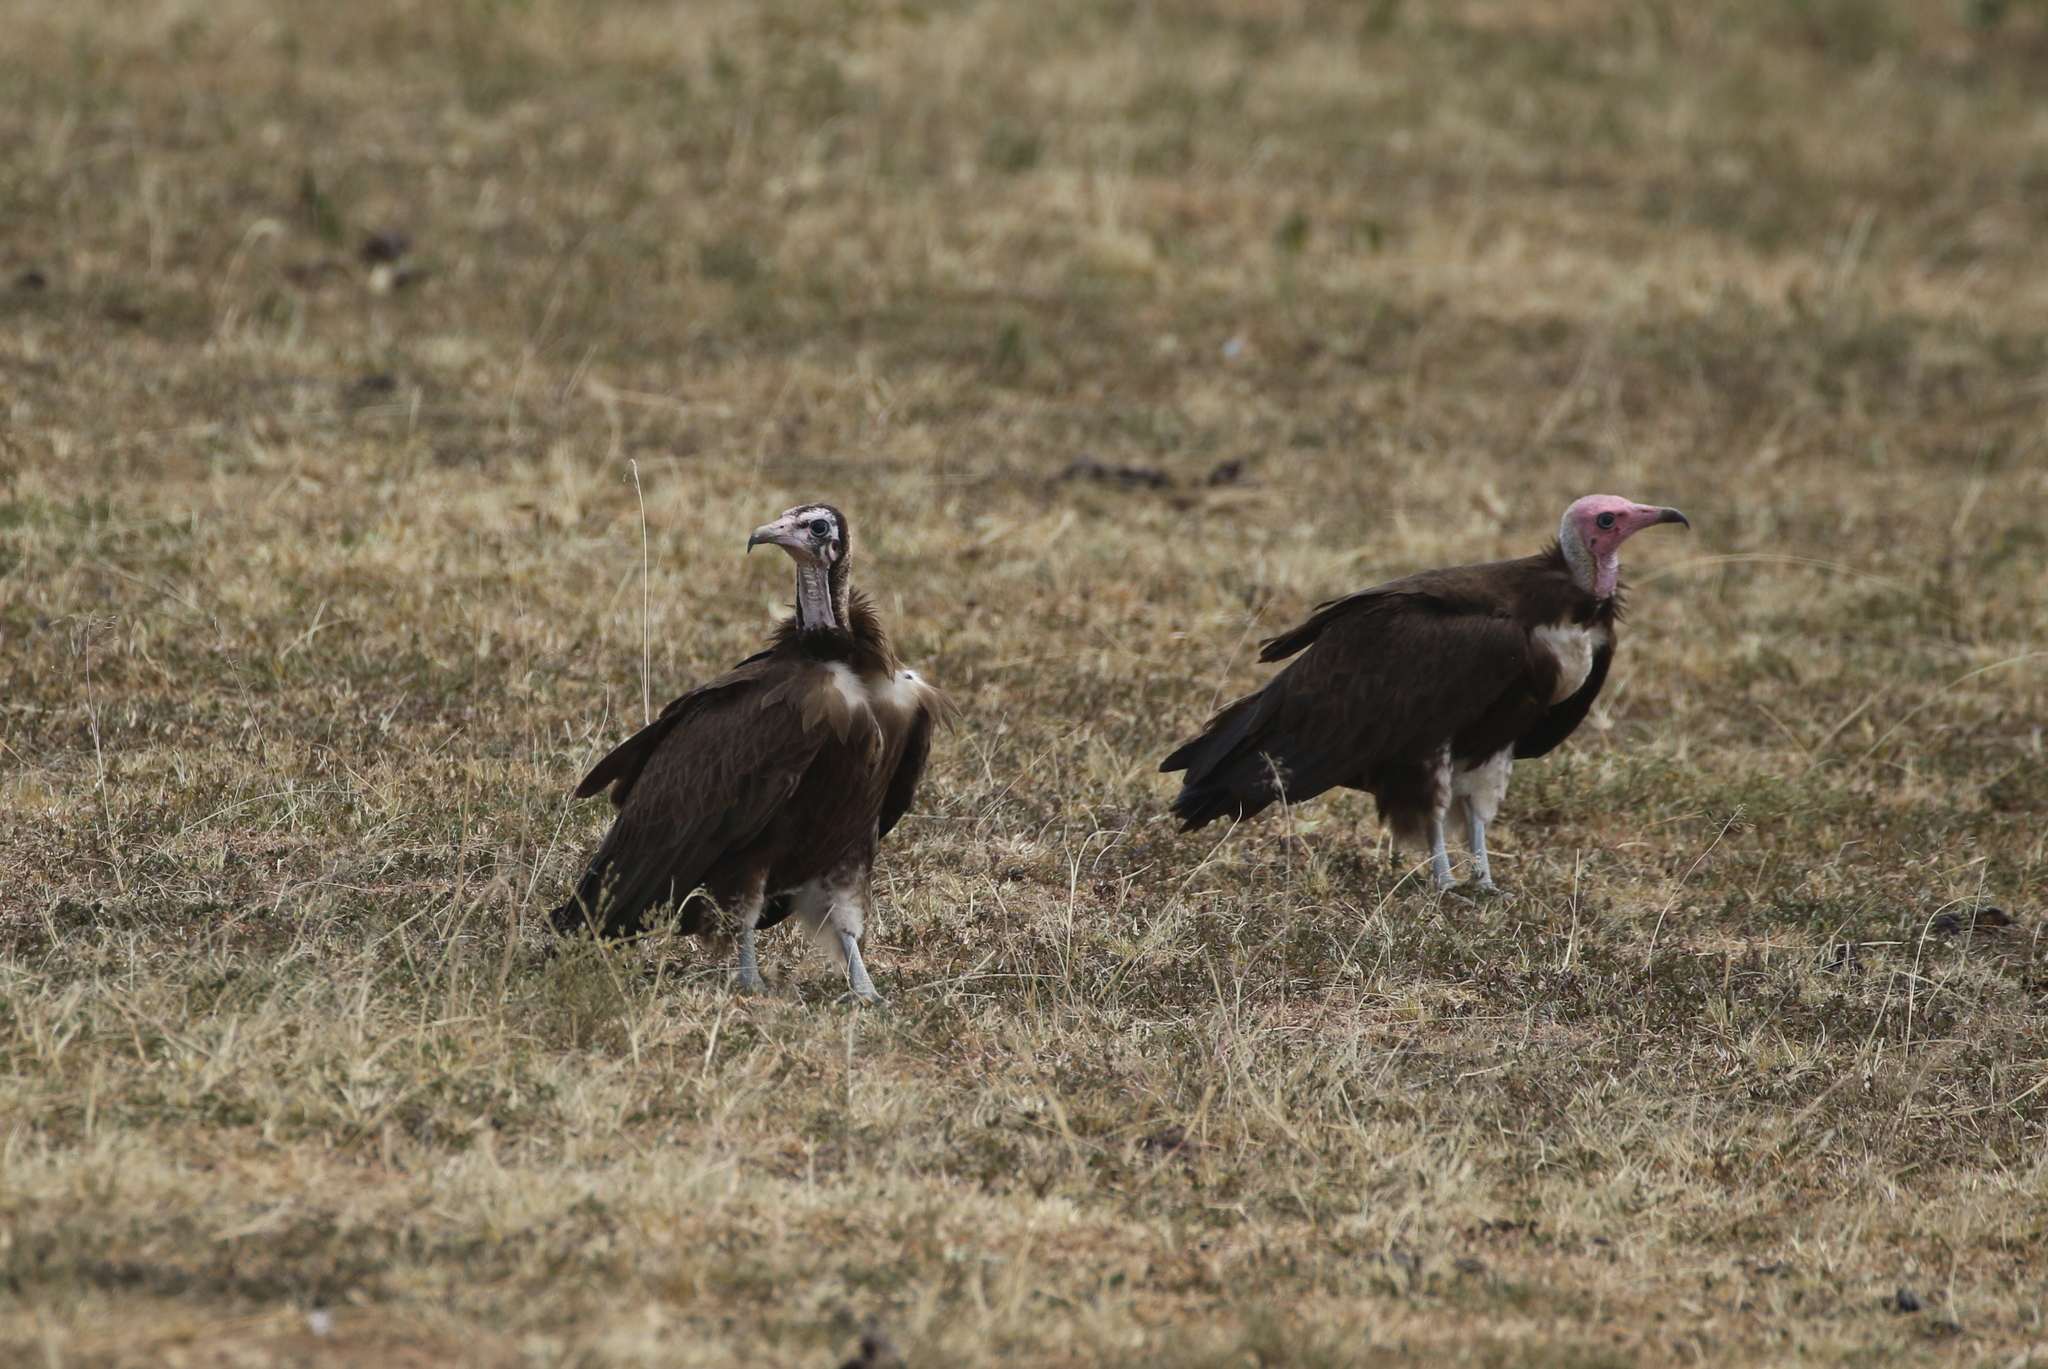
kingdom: Animalia
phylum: Chordata
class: Aves
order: Accipitriformes
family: Accipitridae
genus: Necrosyrtes
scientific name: Necrosyrtes monachus
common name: Hooded vulture
